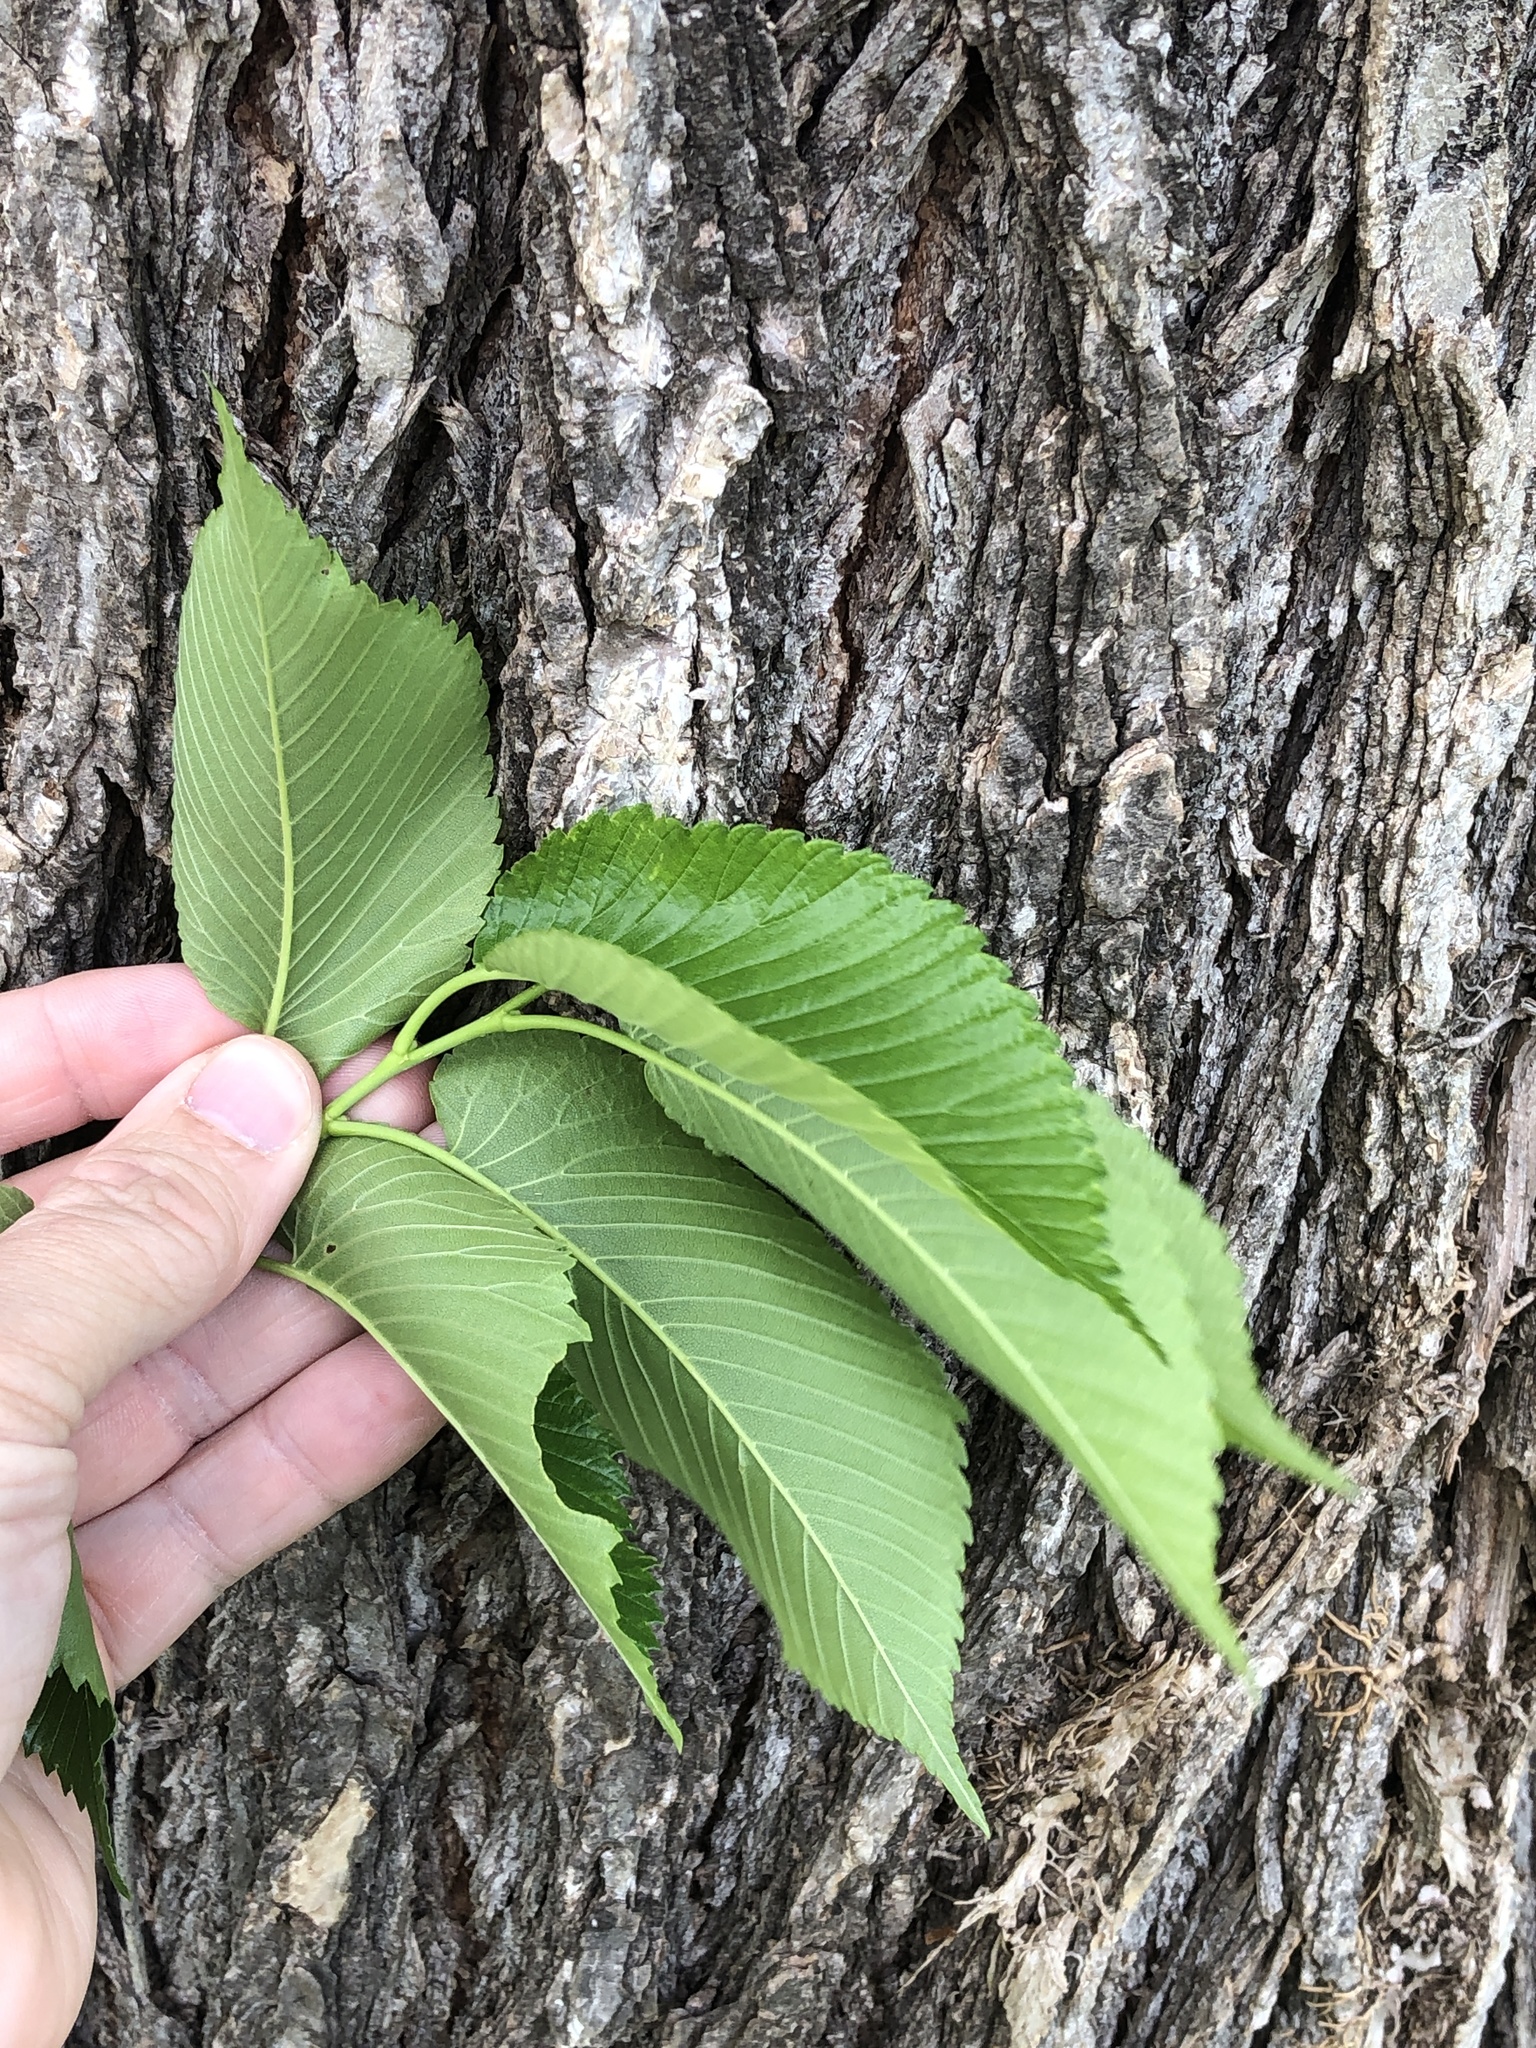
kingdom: Plantae
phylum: Tracheophyta
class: Magnoliopsida
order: Rosales
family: Ulmaceae
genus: Ulmus
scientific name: Ulmus americana
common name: American elm
